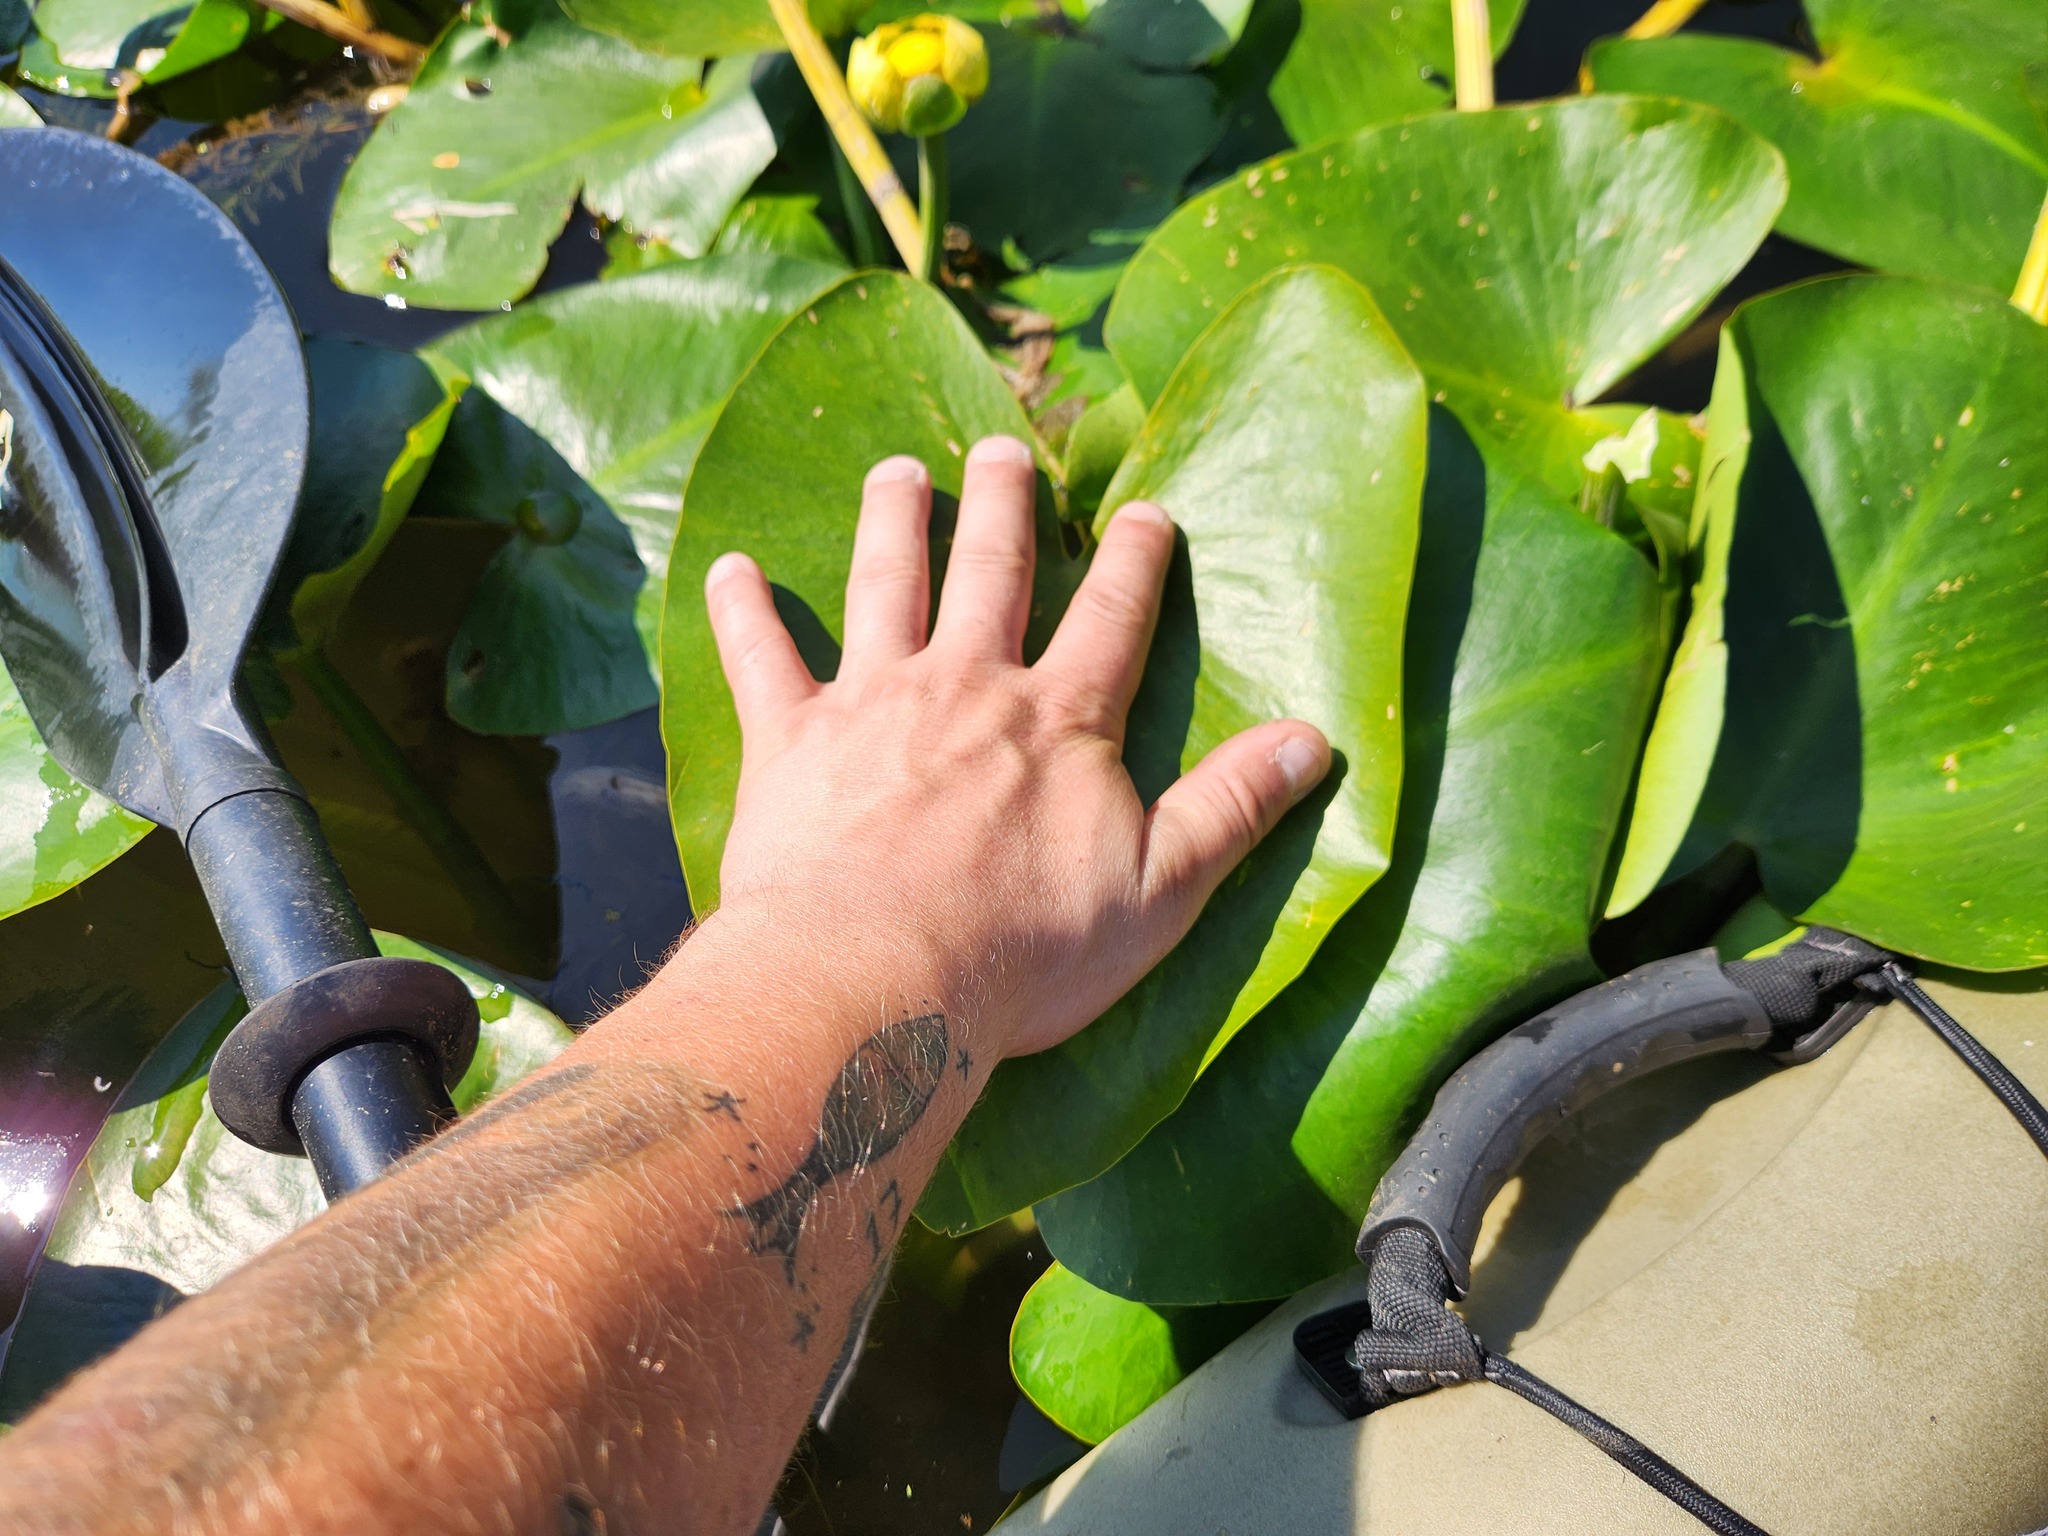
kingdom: Plantae
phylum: Tracheophyta
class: Magnoliopsida
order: Nymphaeales
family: Nymphaeaceae
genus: Nuphar
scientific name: Nuphar advena
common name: Spatter-dock
